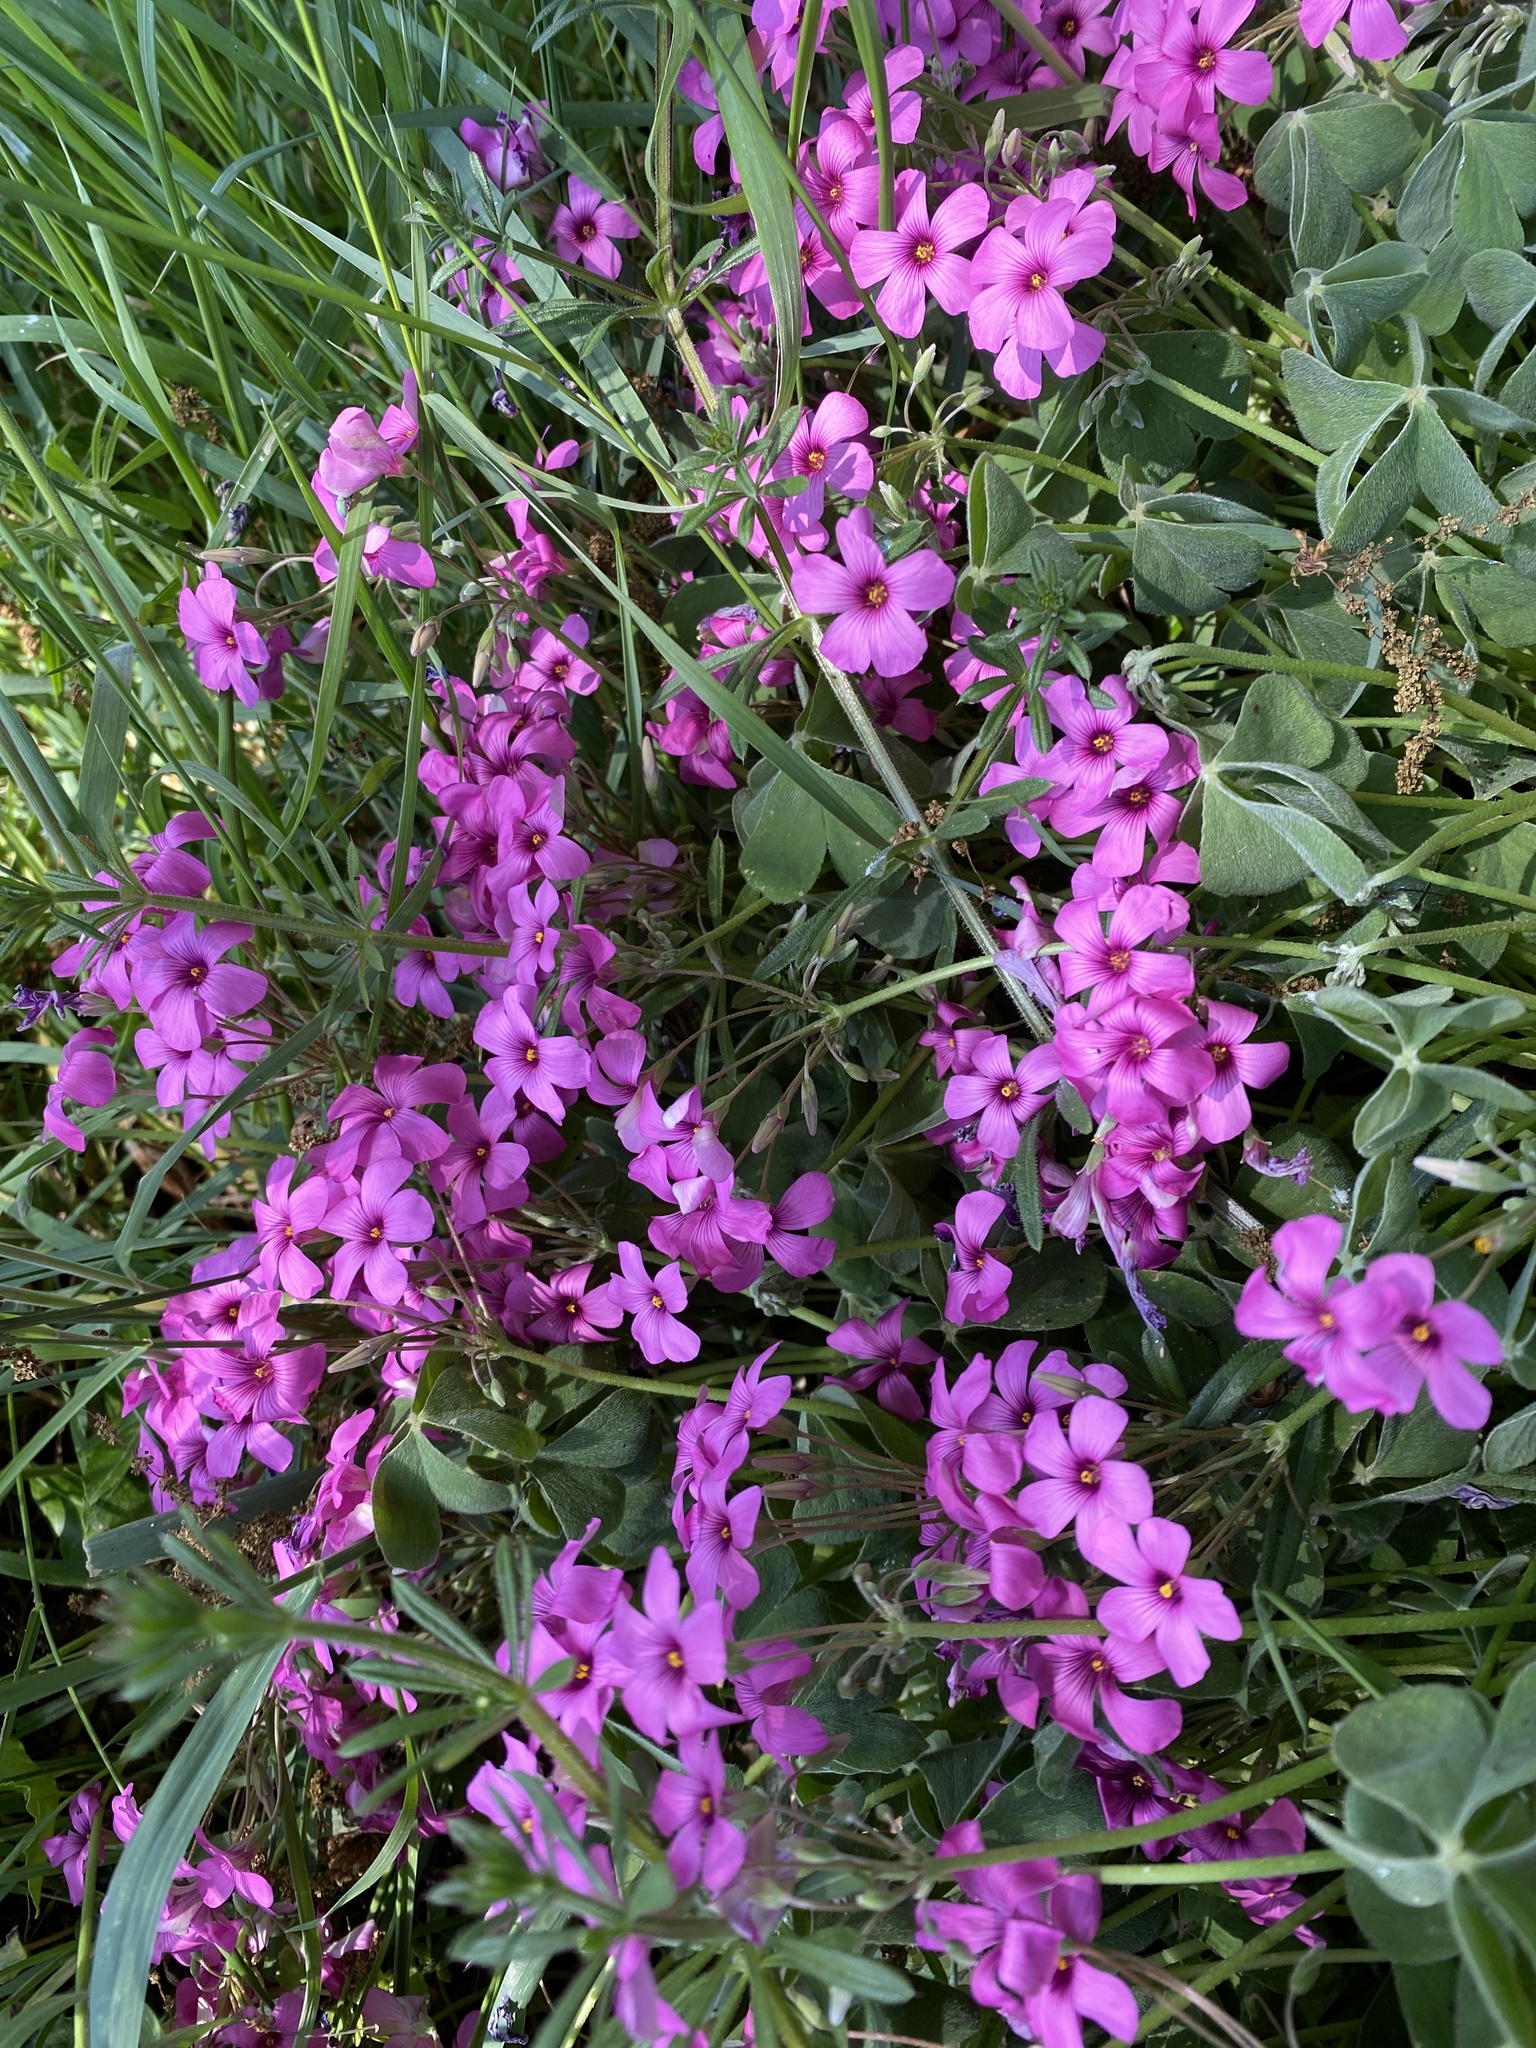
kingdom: Plantae
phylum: Tracheophyta
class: Magnoliopsida
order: Oxalidales
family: Oxalidaceae
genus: Oxalis
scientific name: Oxalis articulata
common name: Pink-sorrel
